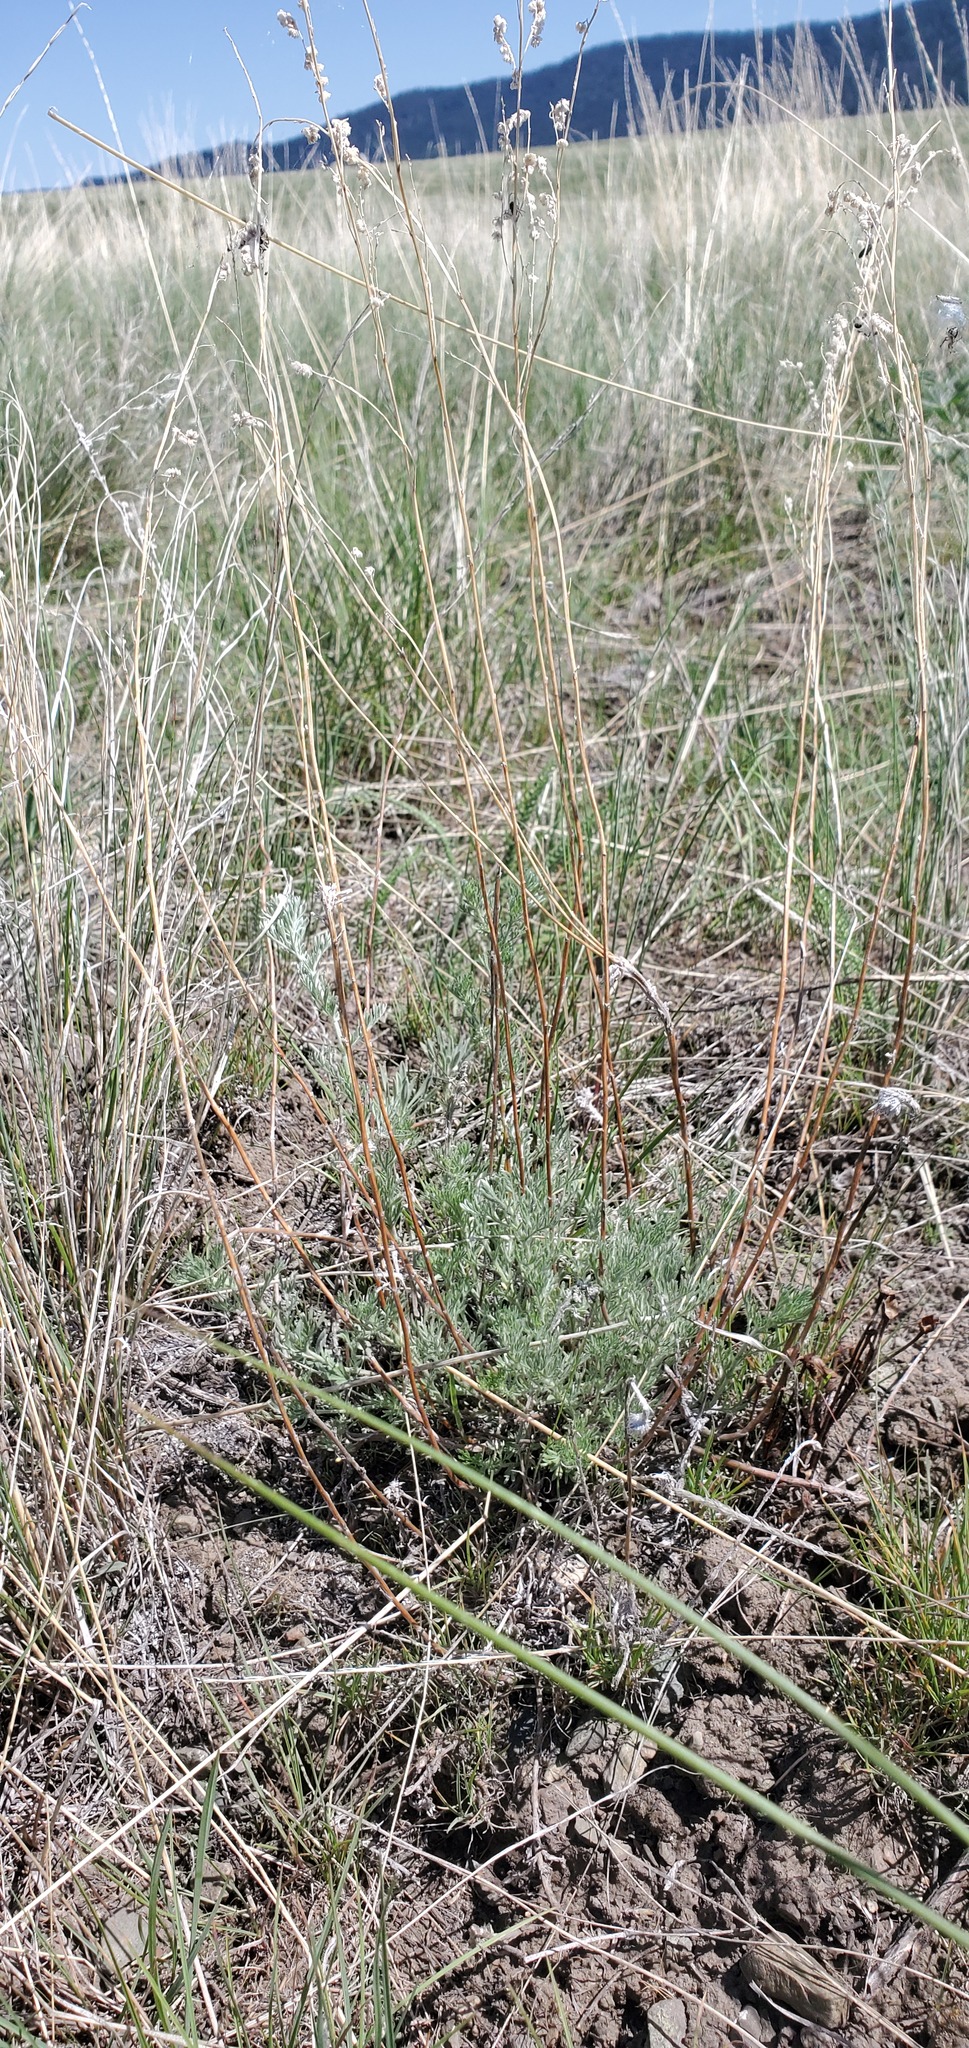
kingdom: Plantae
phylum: Tracheophyta
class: Magnoliopsida
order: Asterales
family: Asteraceae
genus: Artemisia
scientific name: Artemisia frigida
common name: Prairie sagewort
